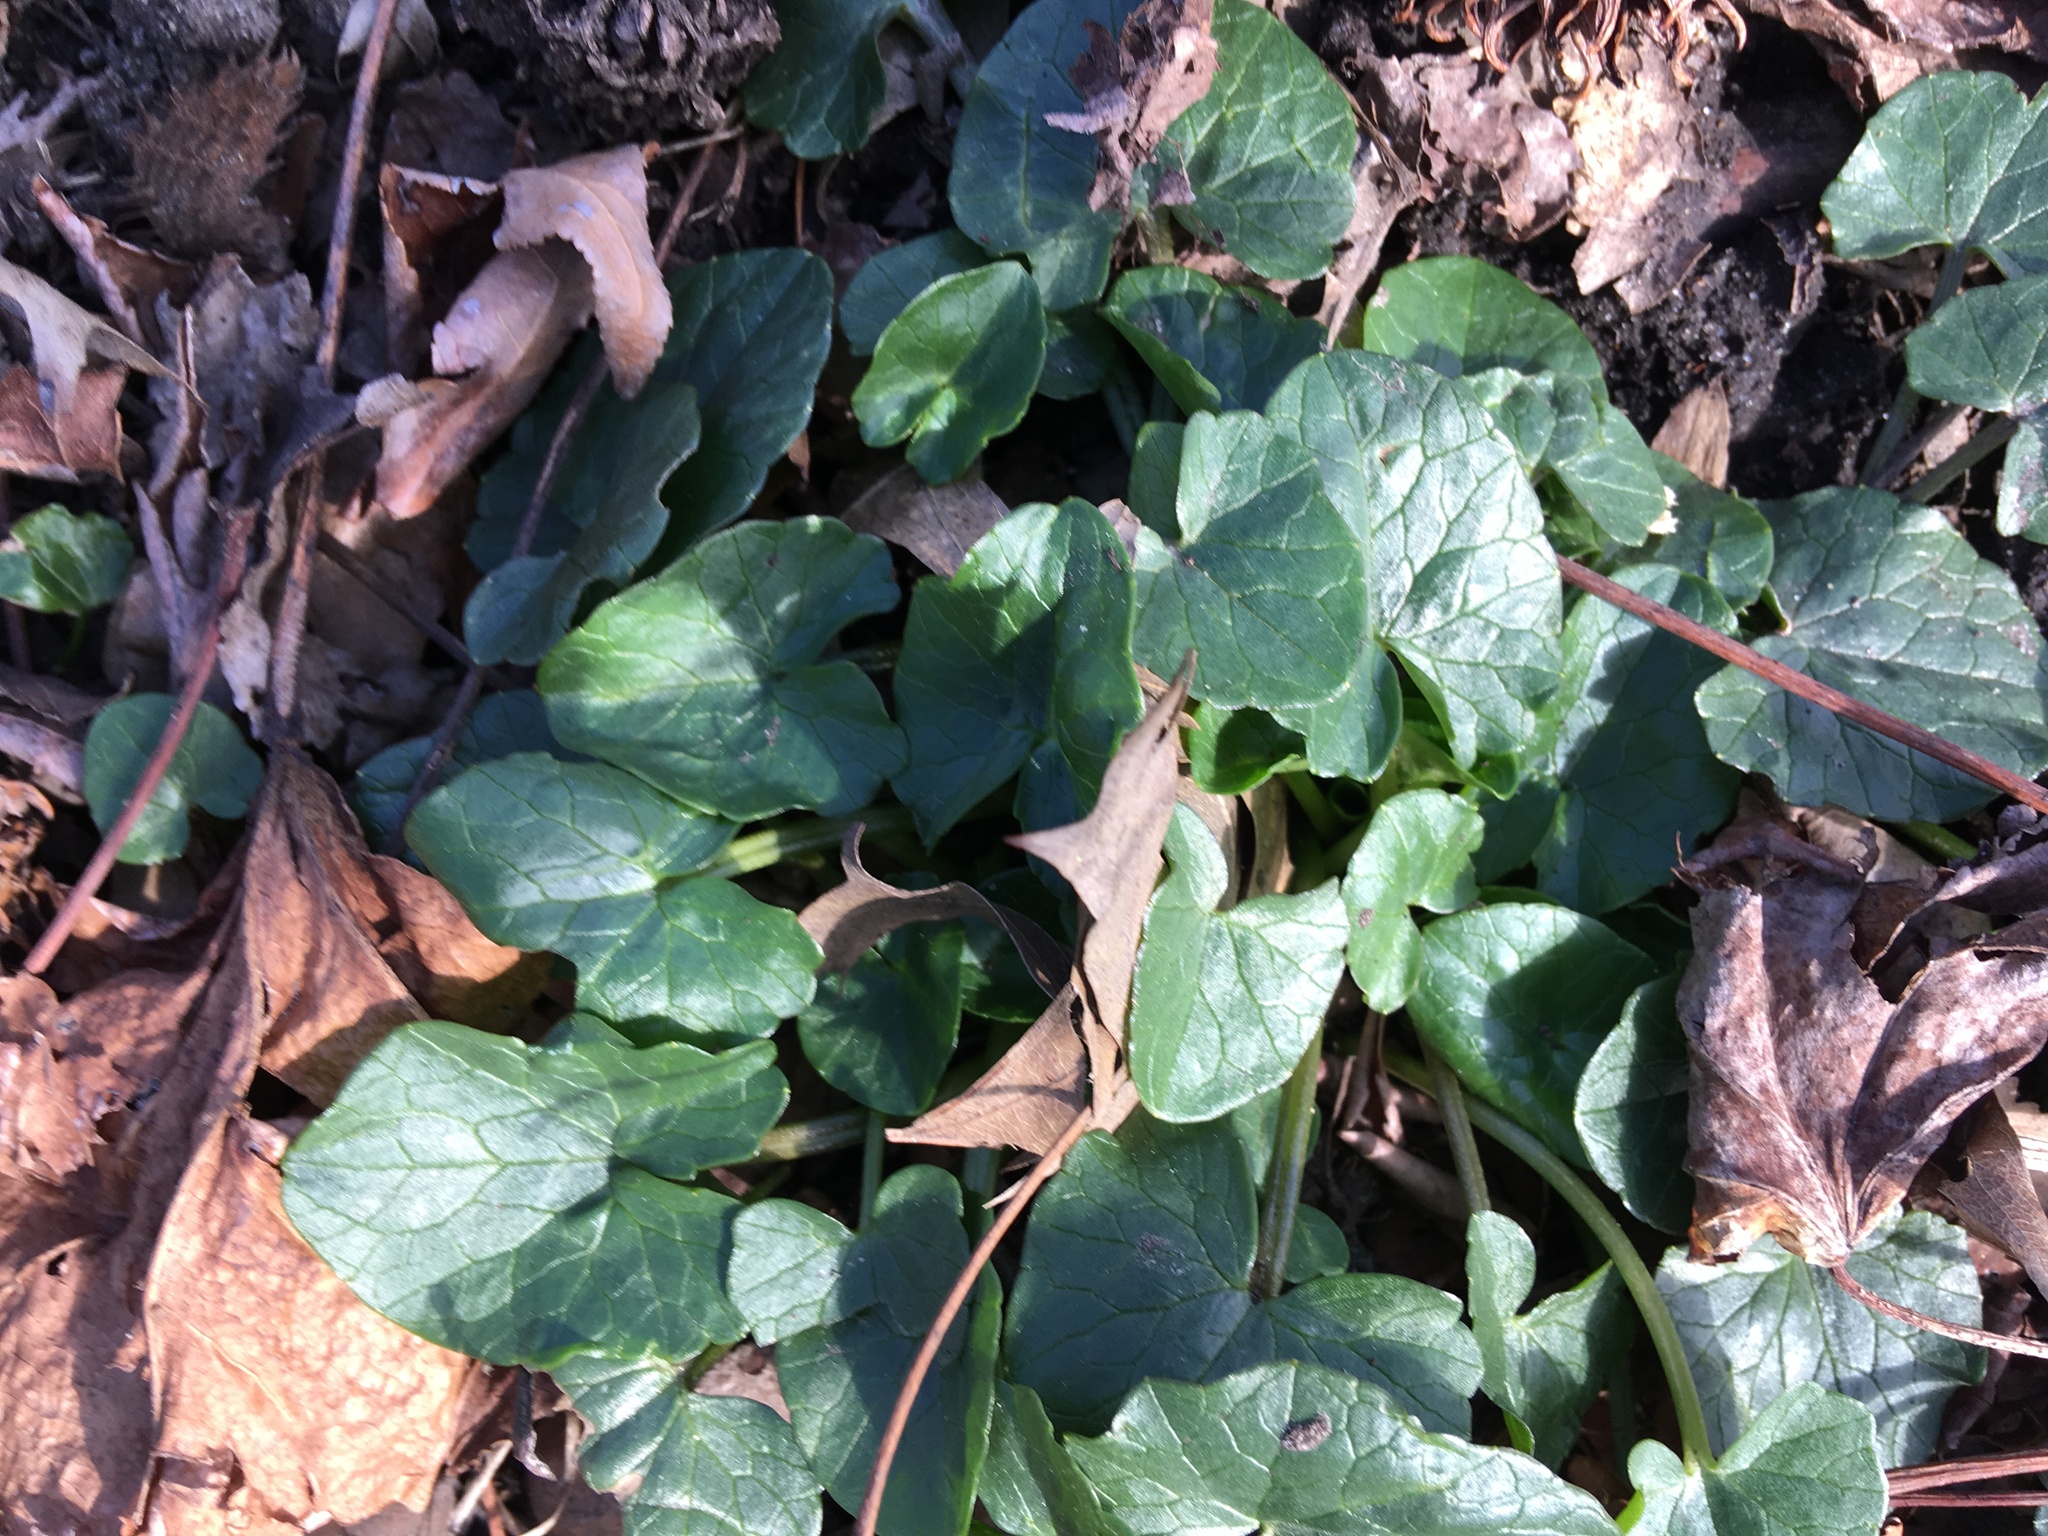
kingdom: Plantae
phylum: Tracheophyta
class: Magnoliopsida
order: Ranunculales
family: Ranunculaceae
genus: Ficaria
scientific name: Ficaria verna
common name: Lesser celandine
